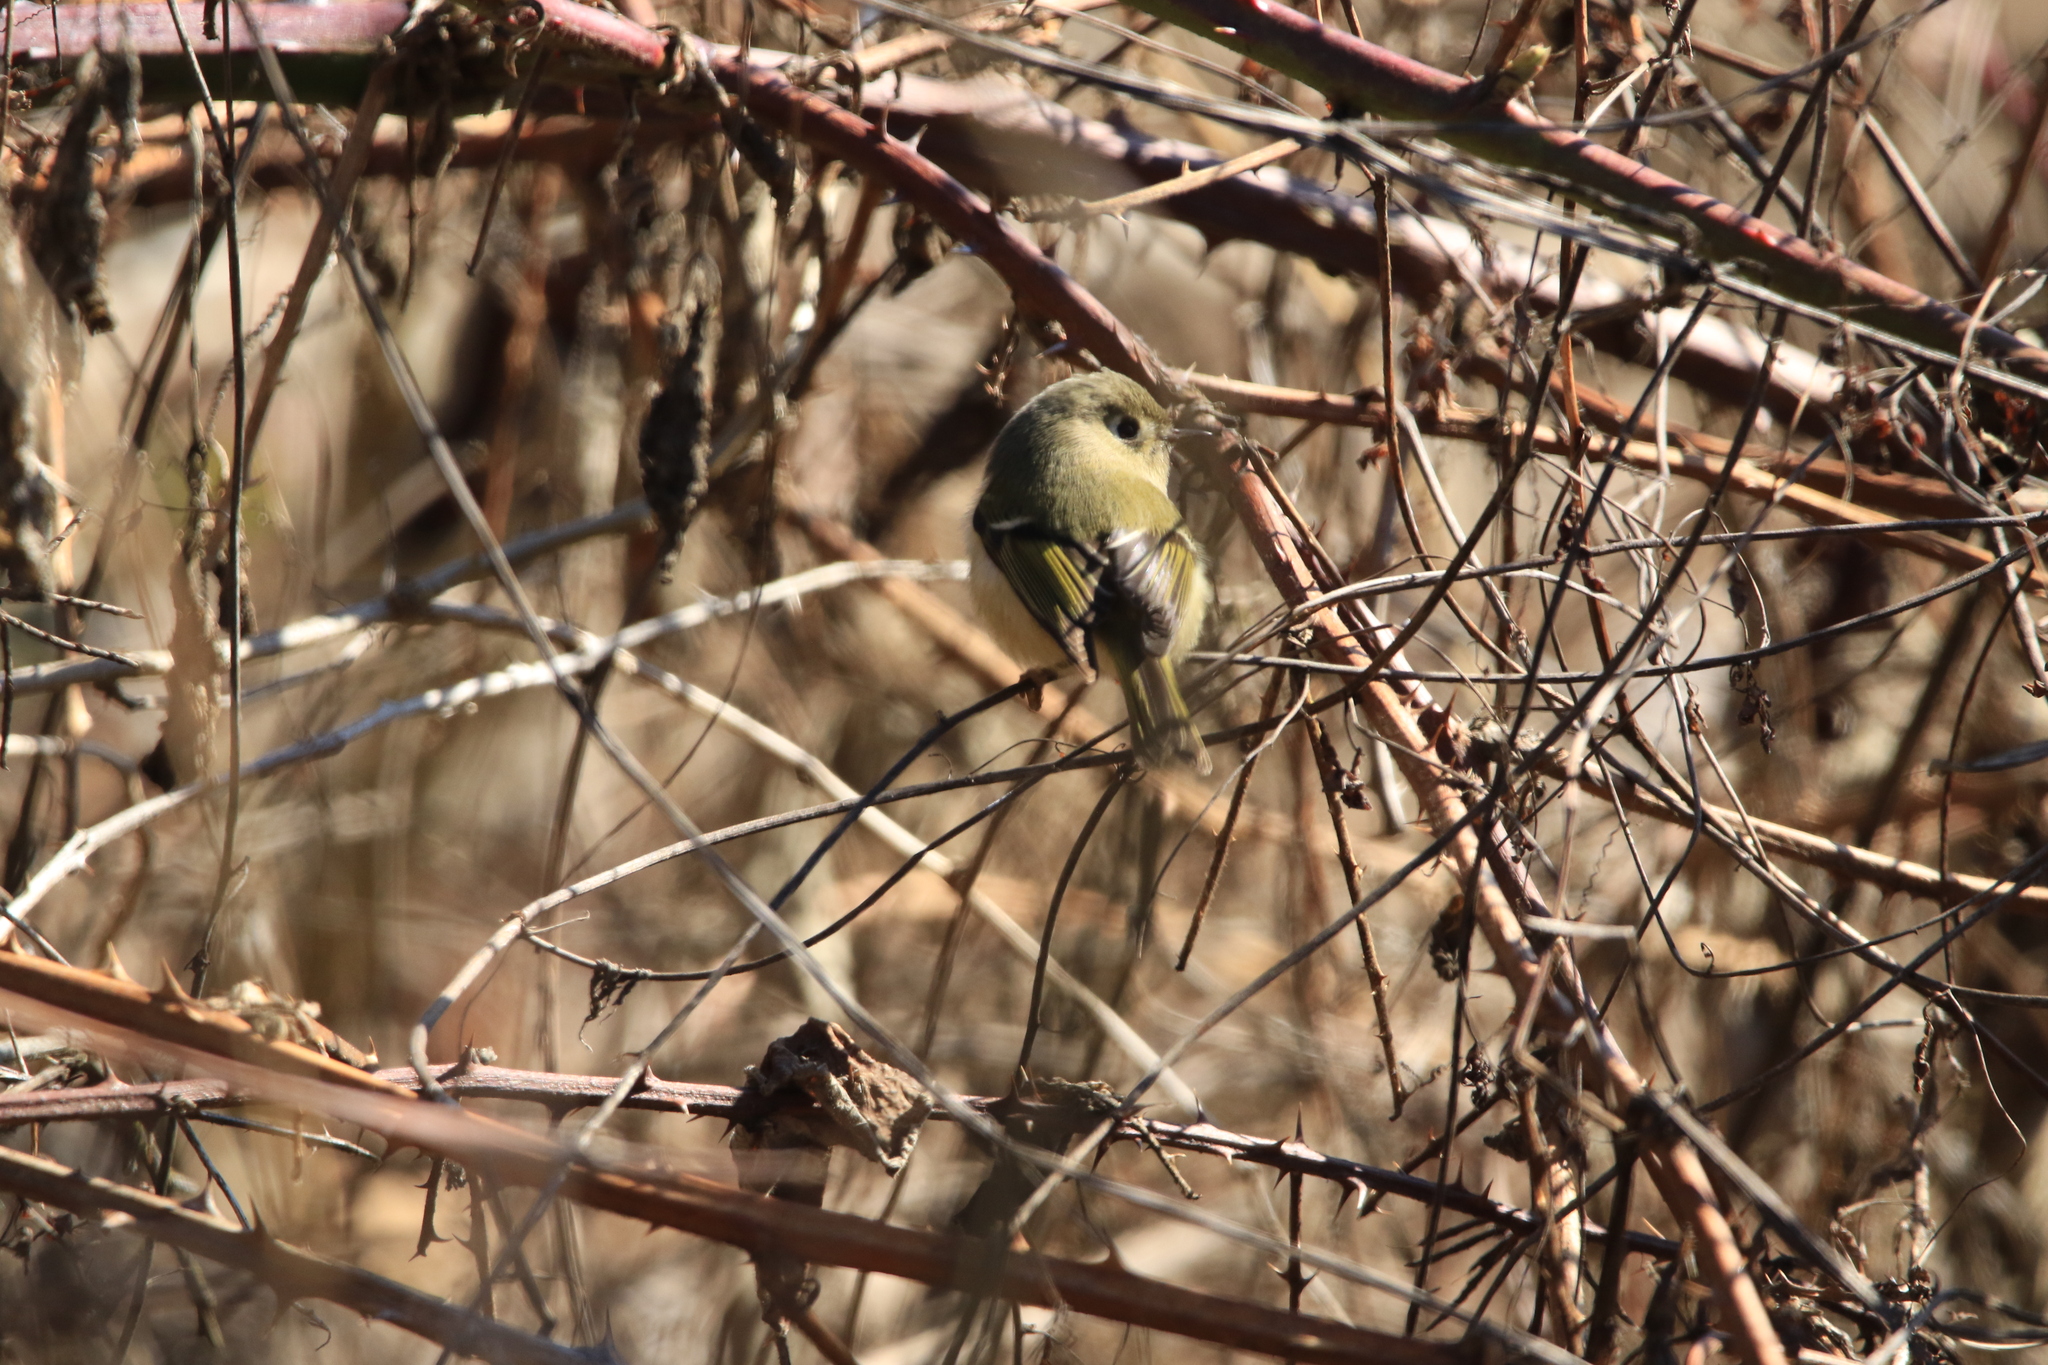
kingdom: Animalia
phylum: Chordata
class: Aves
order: Passeriformes
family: Regulidae
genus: Regulus
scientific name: Regulus calendula
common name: Ruby-crowned kinglet
